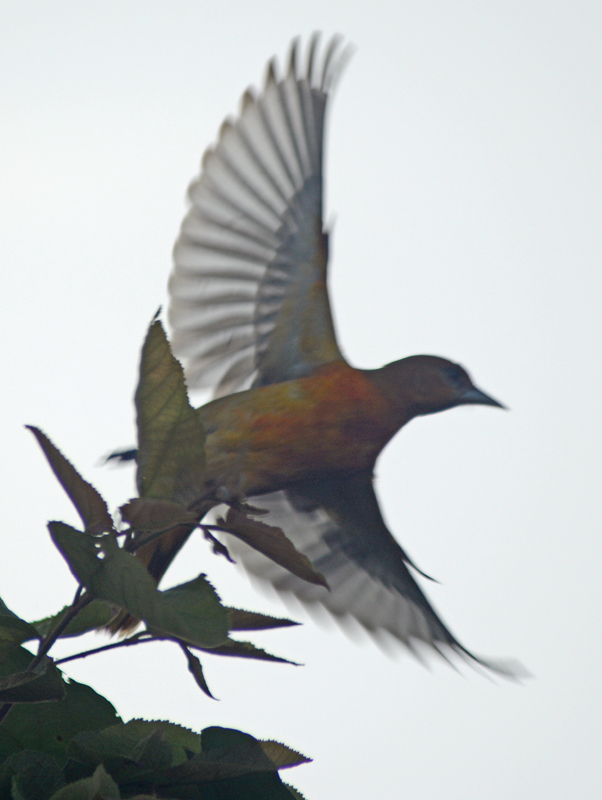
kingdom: Animalia
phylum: Chordata
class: Aves
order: Passeriformes
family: Icteridae
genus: Icterus
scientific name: Icterus galbula
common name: Baltimore oriole
